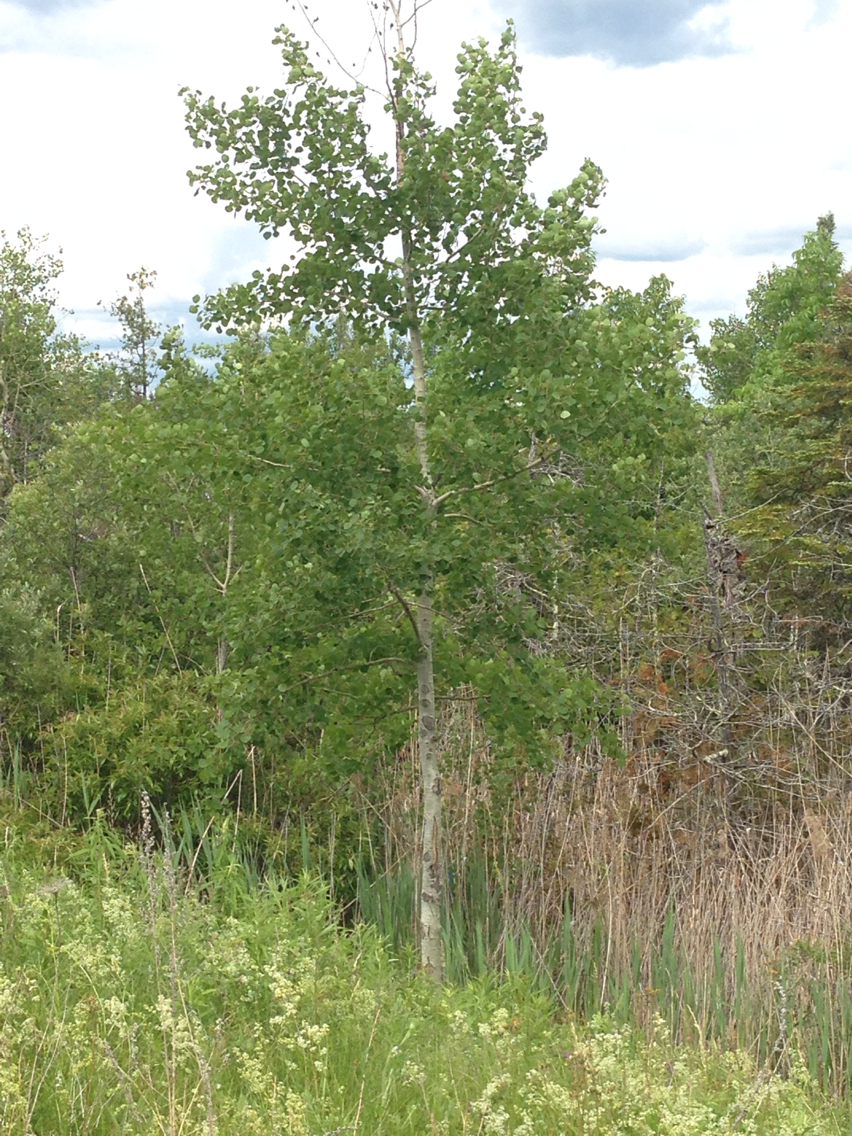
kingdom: Plantae
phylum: Tracheophyta
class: Magnoliopsida
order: Malpighiales
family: Salicaceae
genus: Populus
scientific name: Populus tremuloides
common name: Quaking aspen
